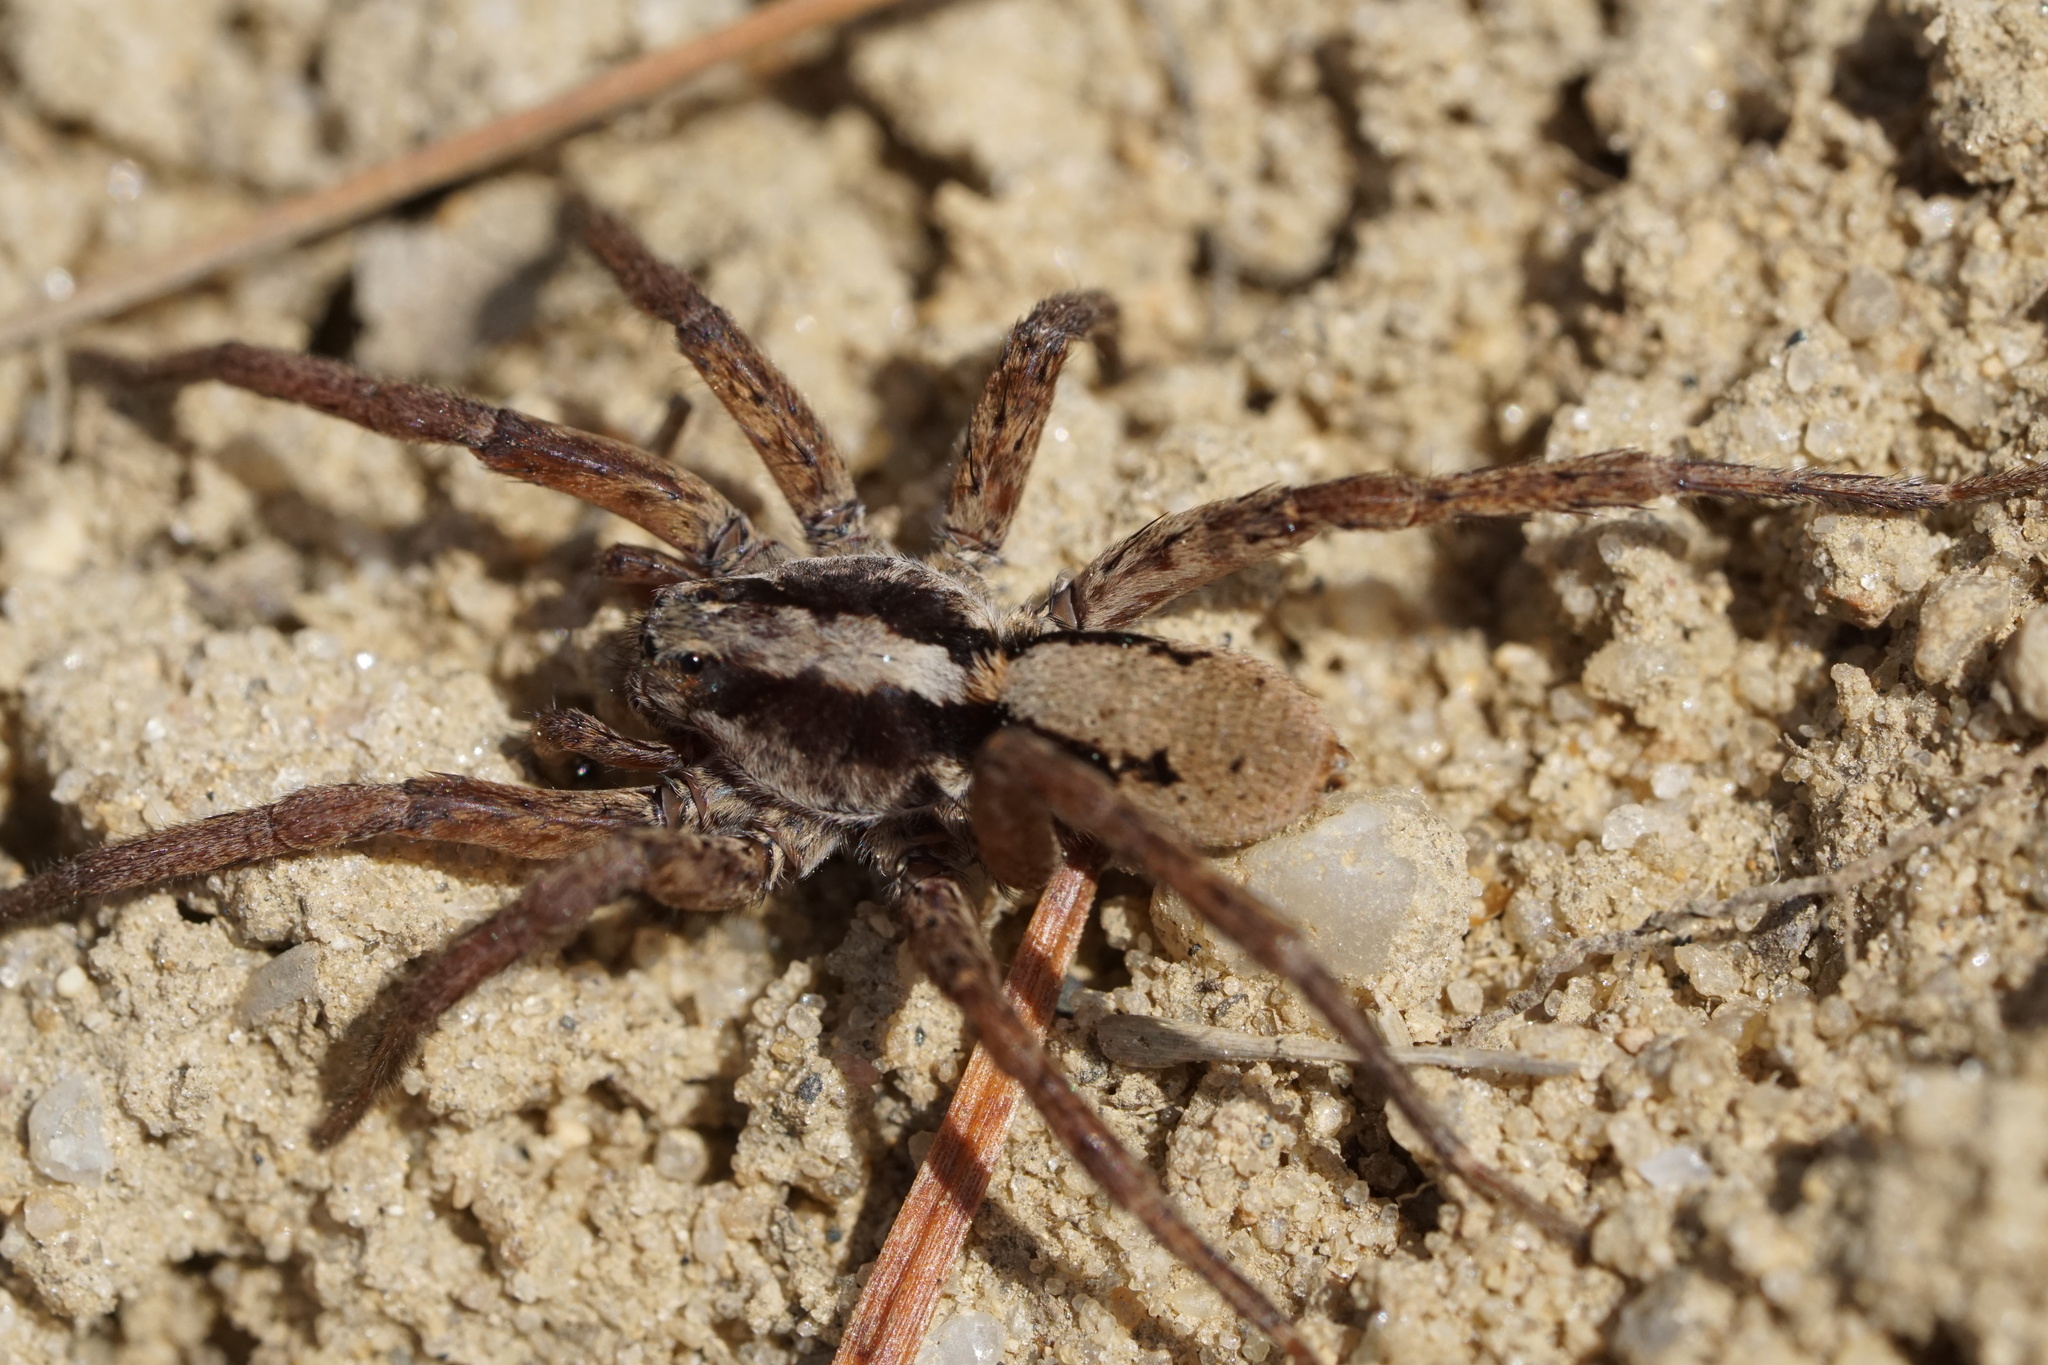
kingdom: Animalia
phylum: Arthropoda
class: Arachnida
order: Araneae
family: Lycosidae
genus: Gladicosa
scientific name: Gladicosa gulosa
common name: Drumming sword wolf spider
